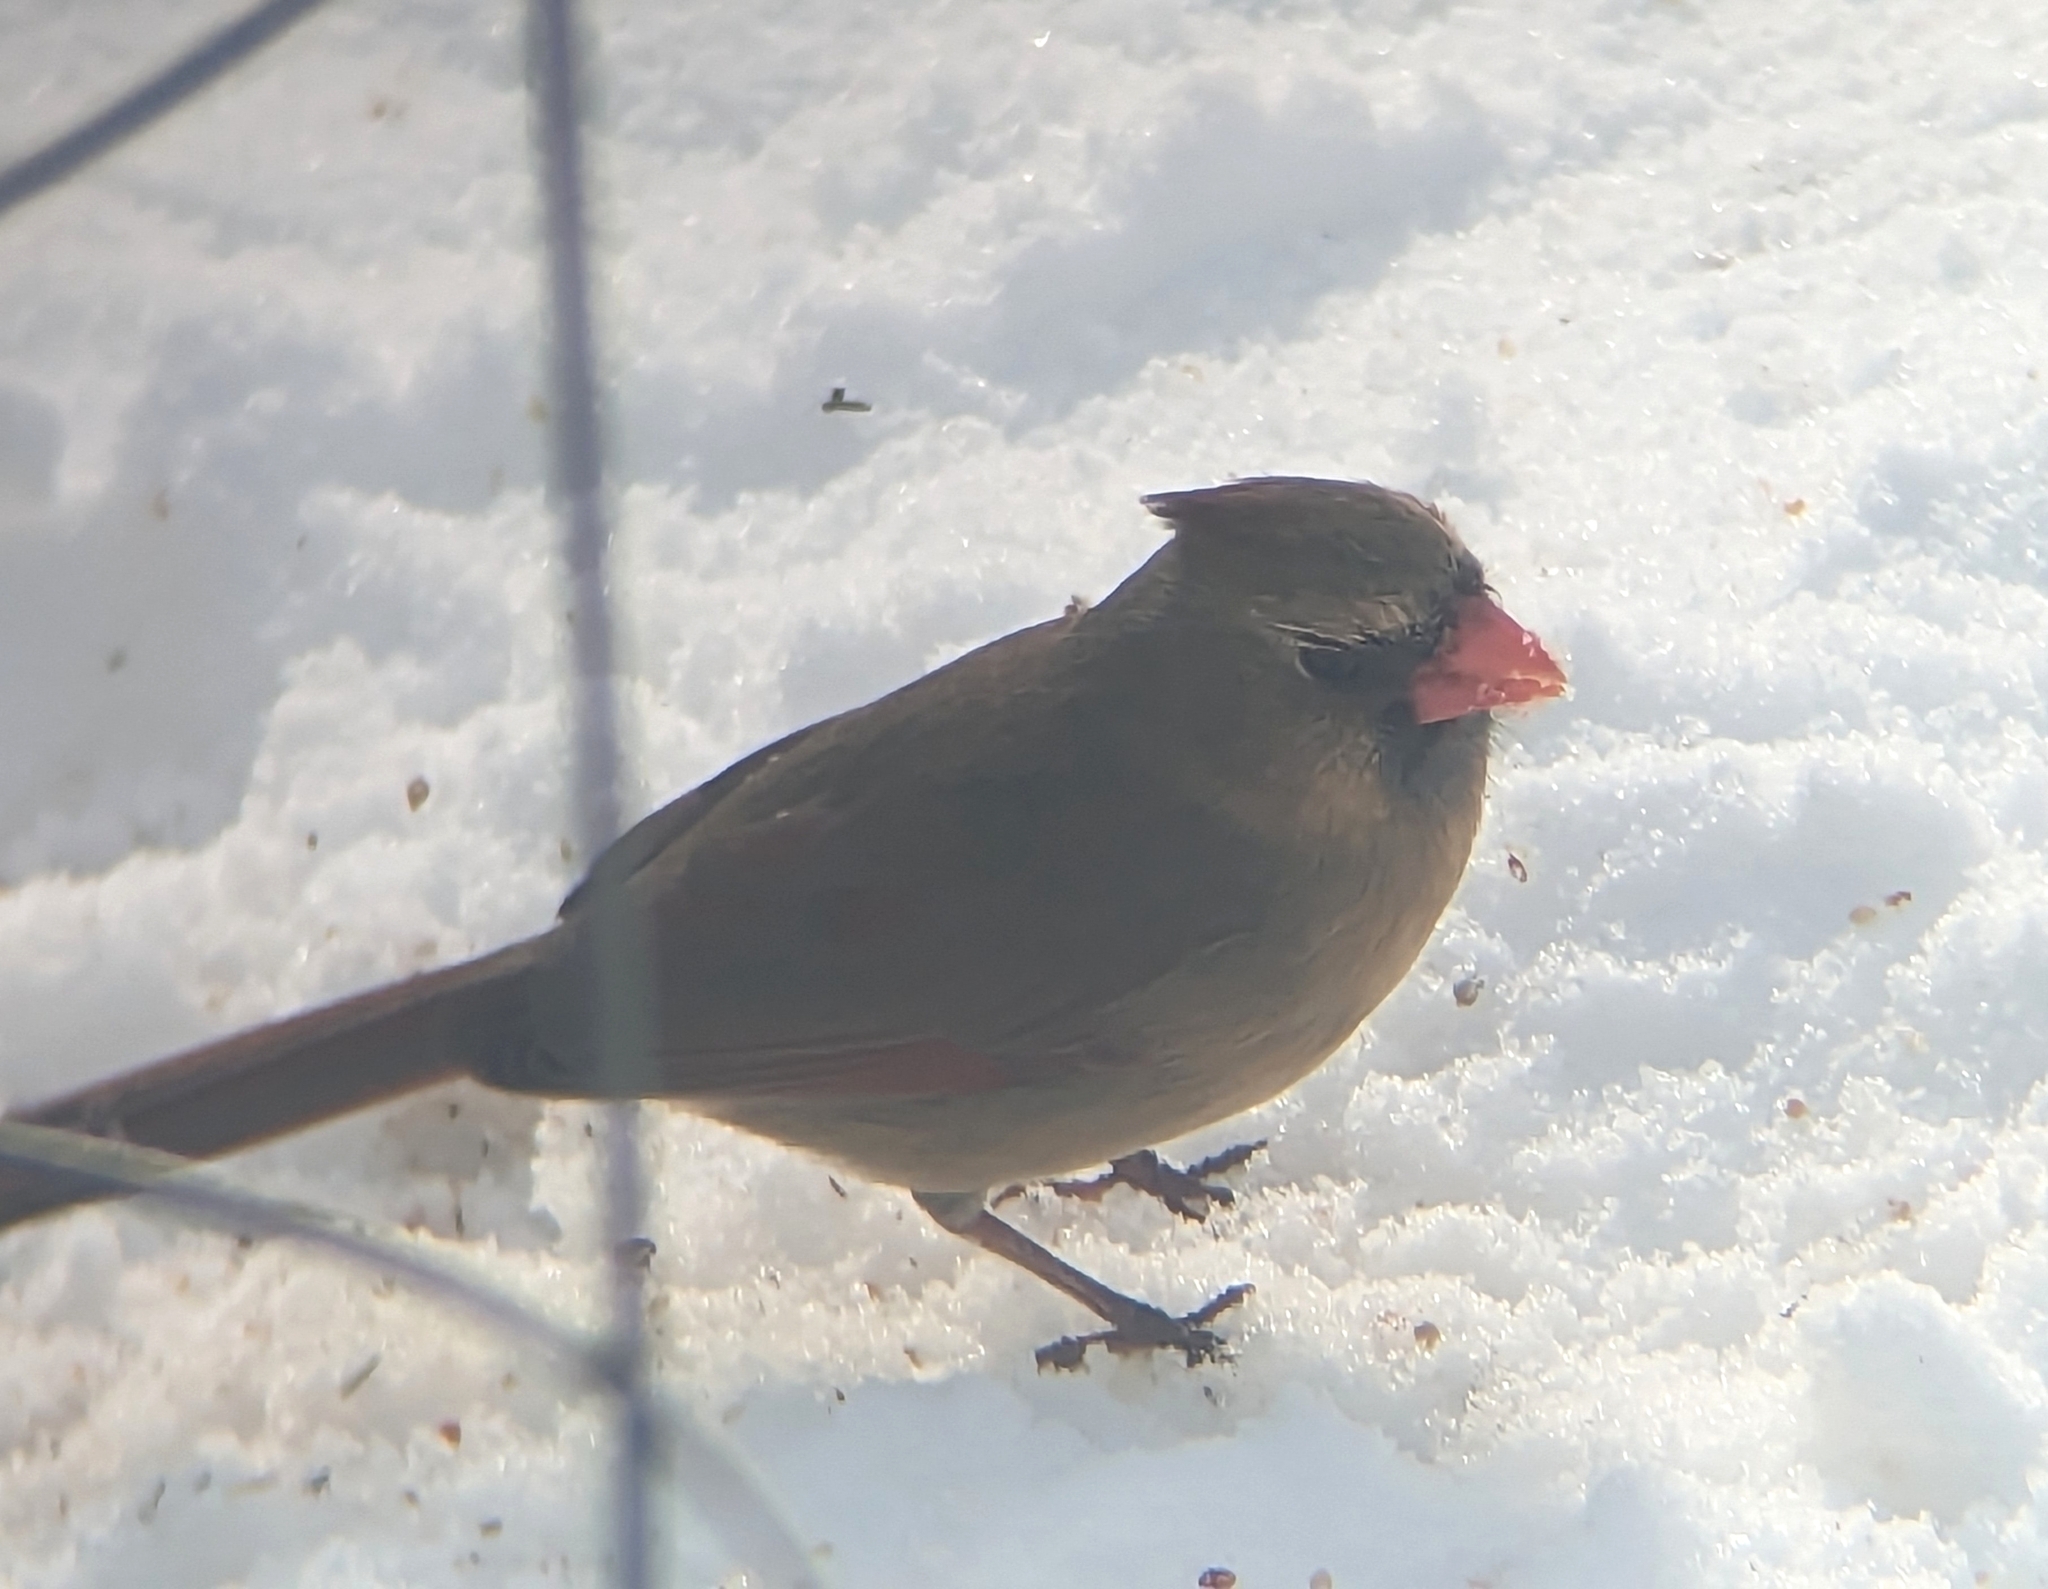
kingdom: Animalia
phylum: Chordata
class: Aves
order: Passeriformes
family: Cardinalidae
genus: Cardinalis
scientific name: Cardinalis cardinalis
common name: Northern cardinal
